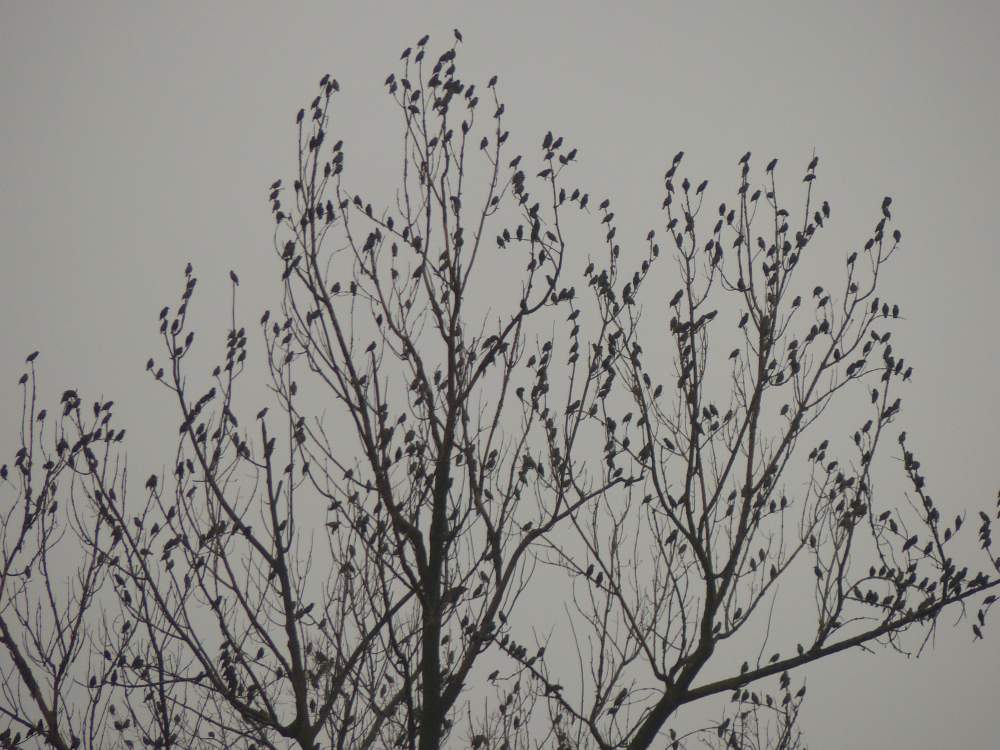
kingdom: Animalia
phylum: Chordata
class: Aves
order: Passeriformes
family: Sturnidae
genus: Sturnus
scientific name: Sturnus vulgaris
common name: Common starling
